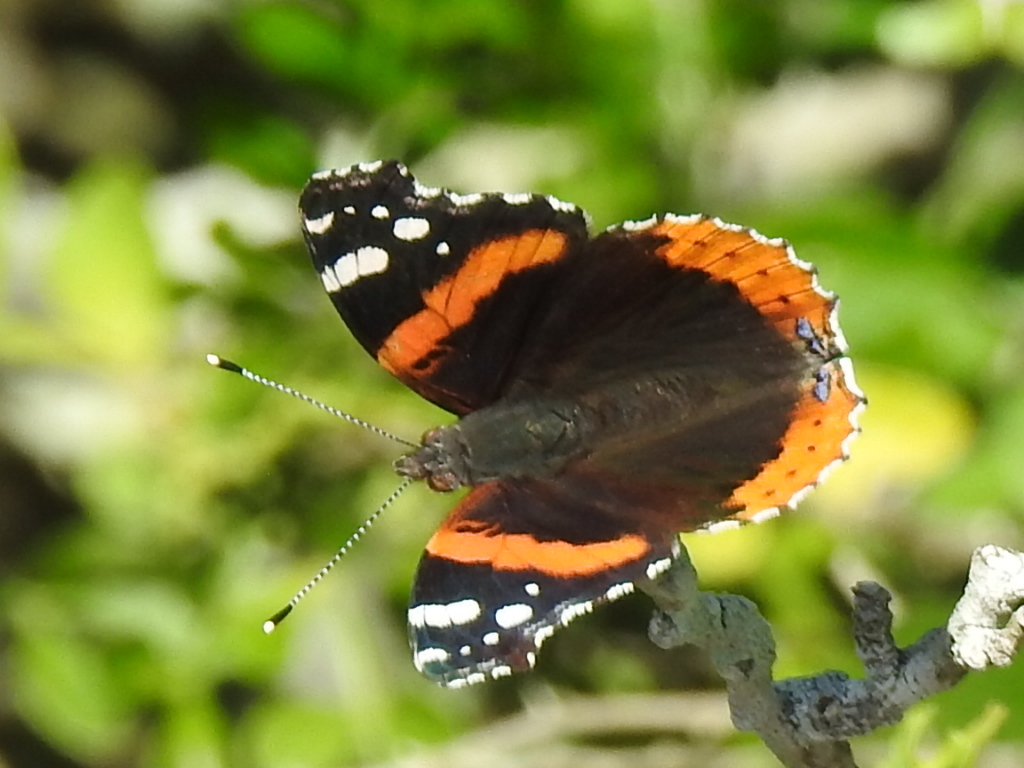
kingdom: Animalia
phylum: Arthropoda
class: Insecta
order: Lepidoptera
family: Nymphalidae
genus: Vanessa
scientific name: Vanessa atalanta
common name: Red admiral
